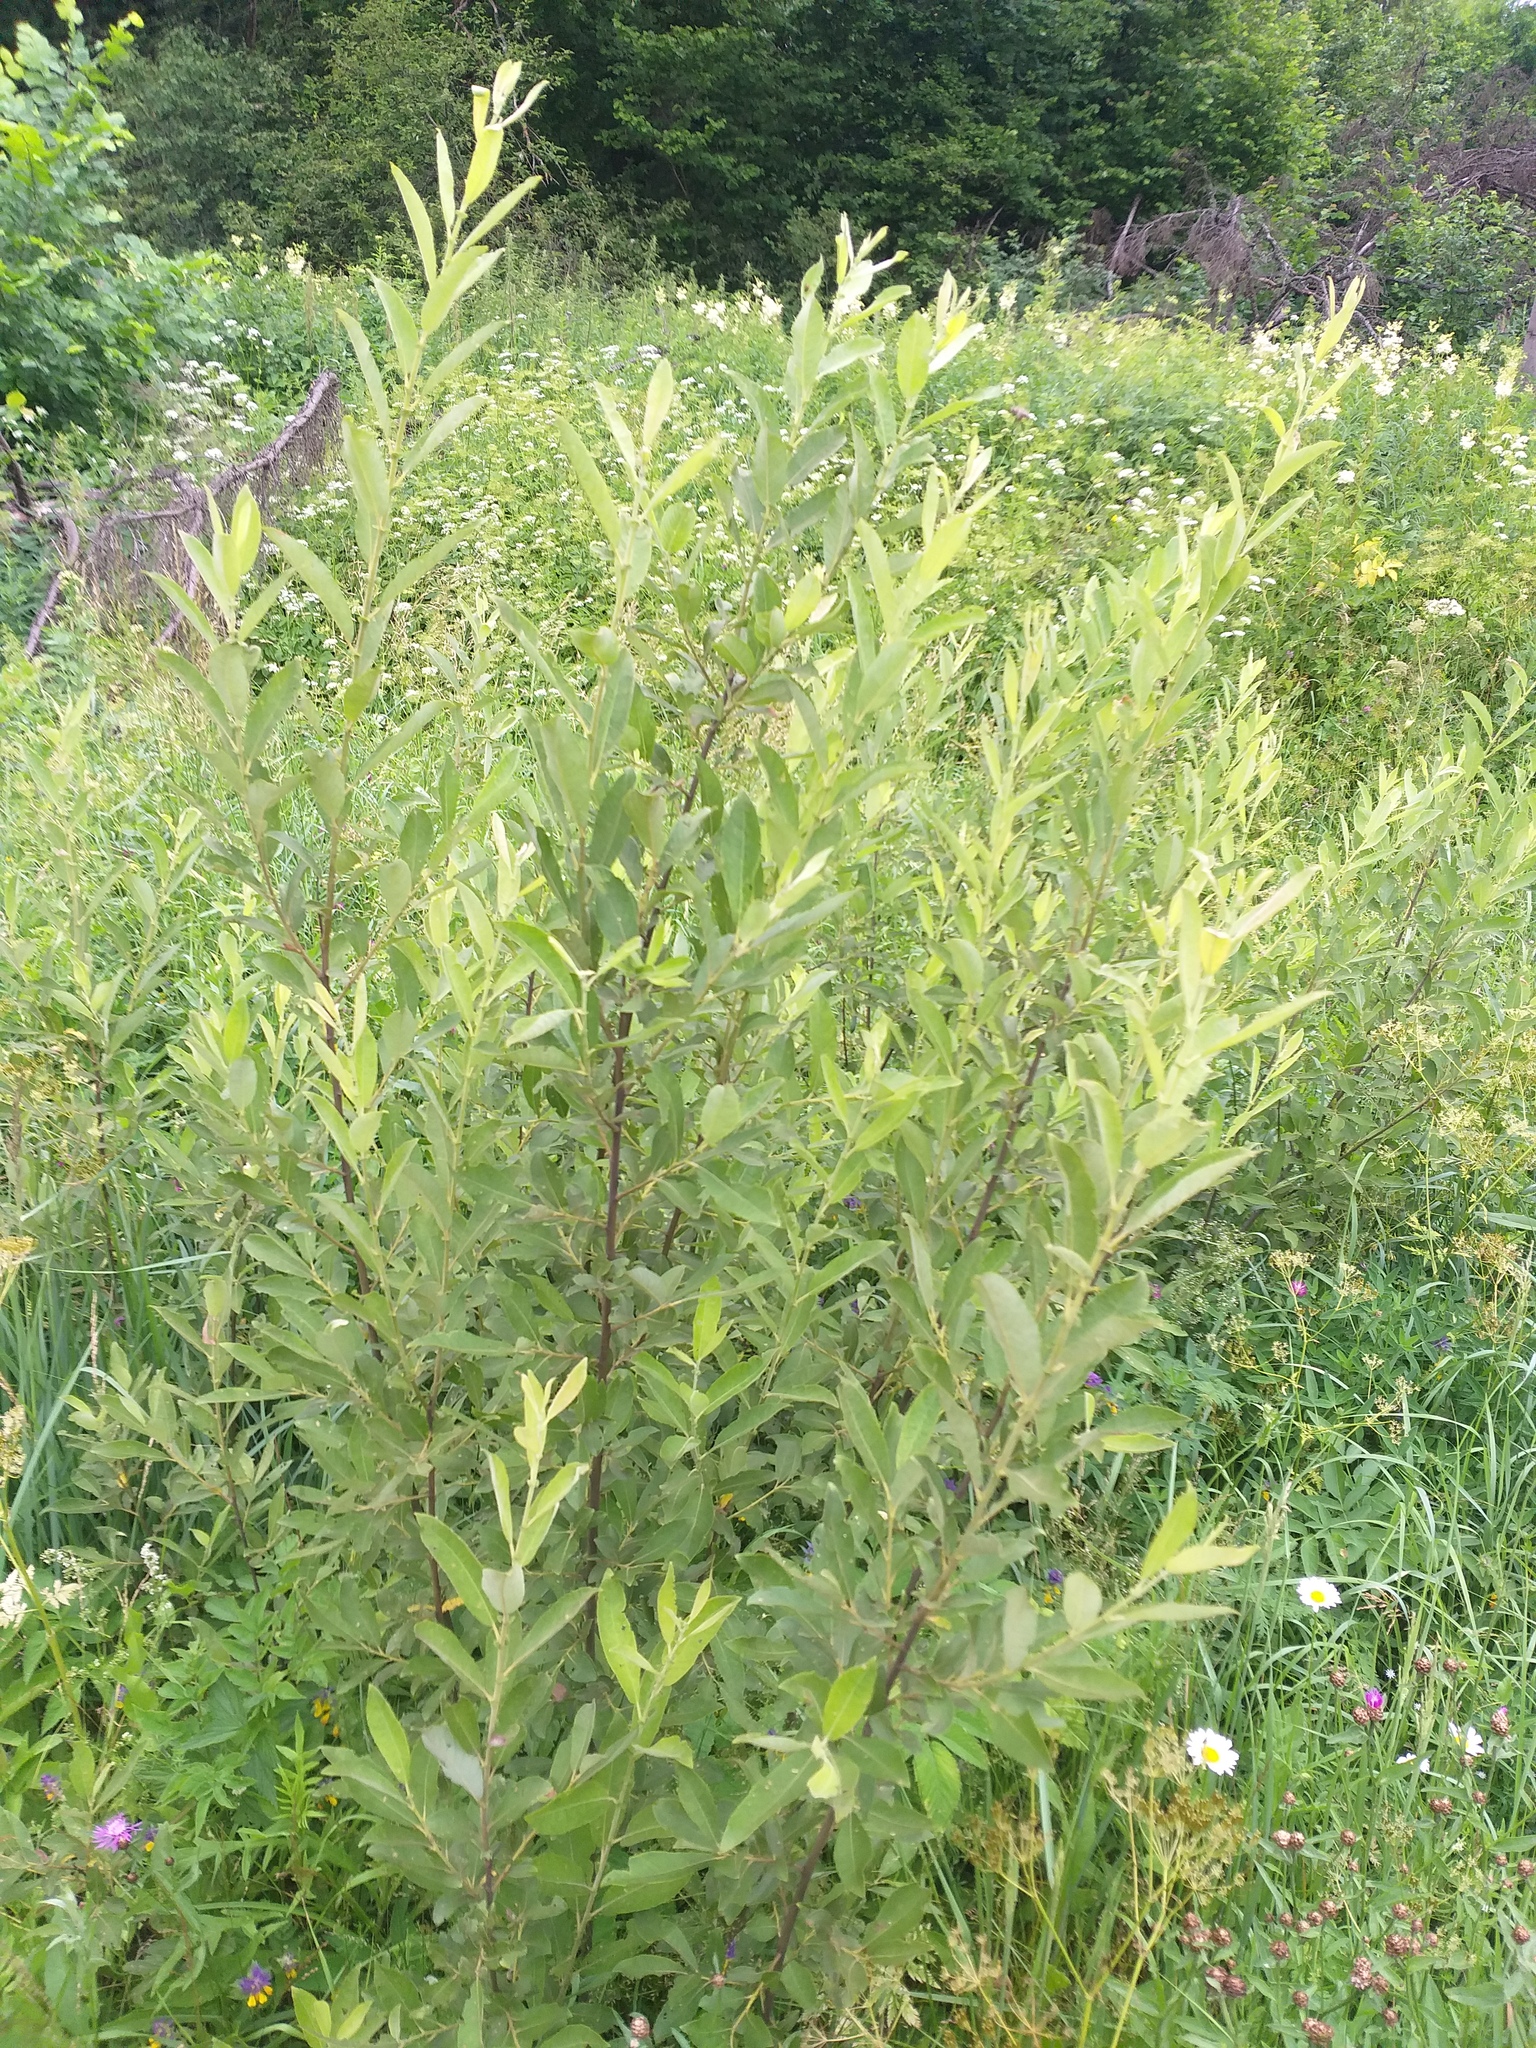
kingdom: Plantae
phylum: Tracheophyta
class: Magnoliopsida
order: Malpighiales
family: Salicaceae
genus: Salix
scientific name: Salix cinerea
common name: Common sallow
